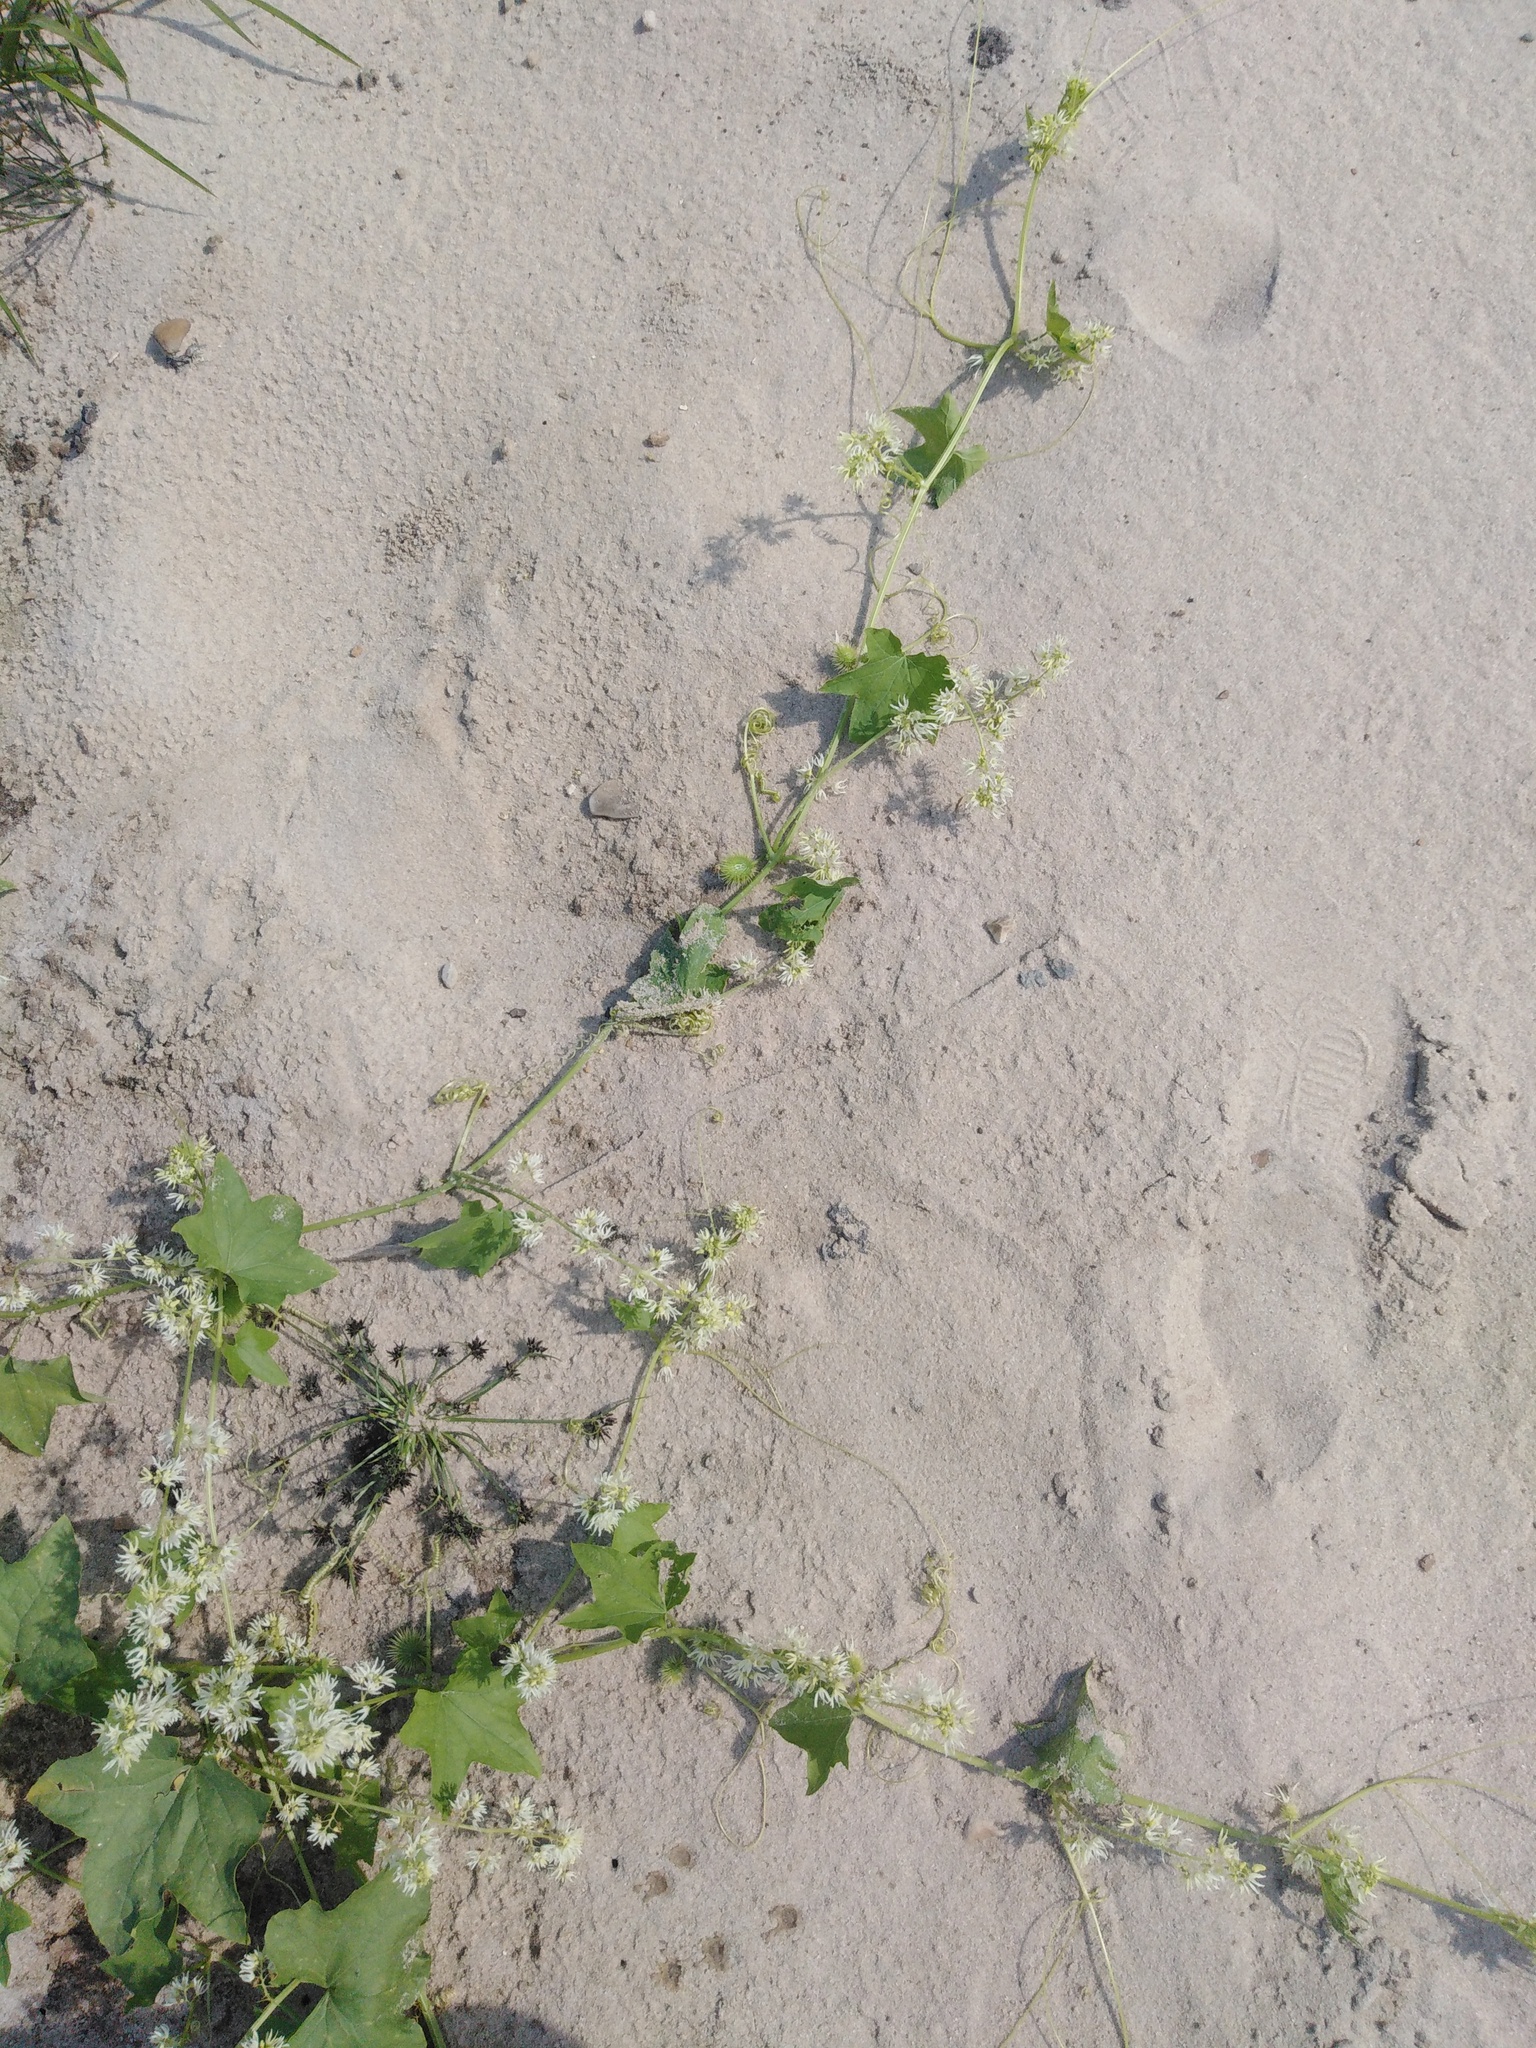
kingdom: Plantae
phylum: Tracheophyta
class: Magnoliopsida
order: Cucurbitales
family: Cucurbitaceae
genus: Echinocystis
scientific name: Echinocystis lobata
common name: Wild cucumber
